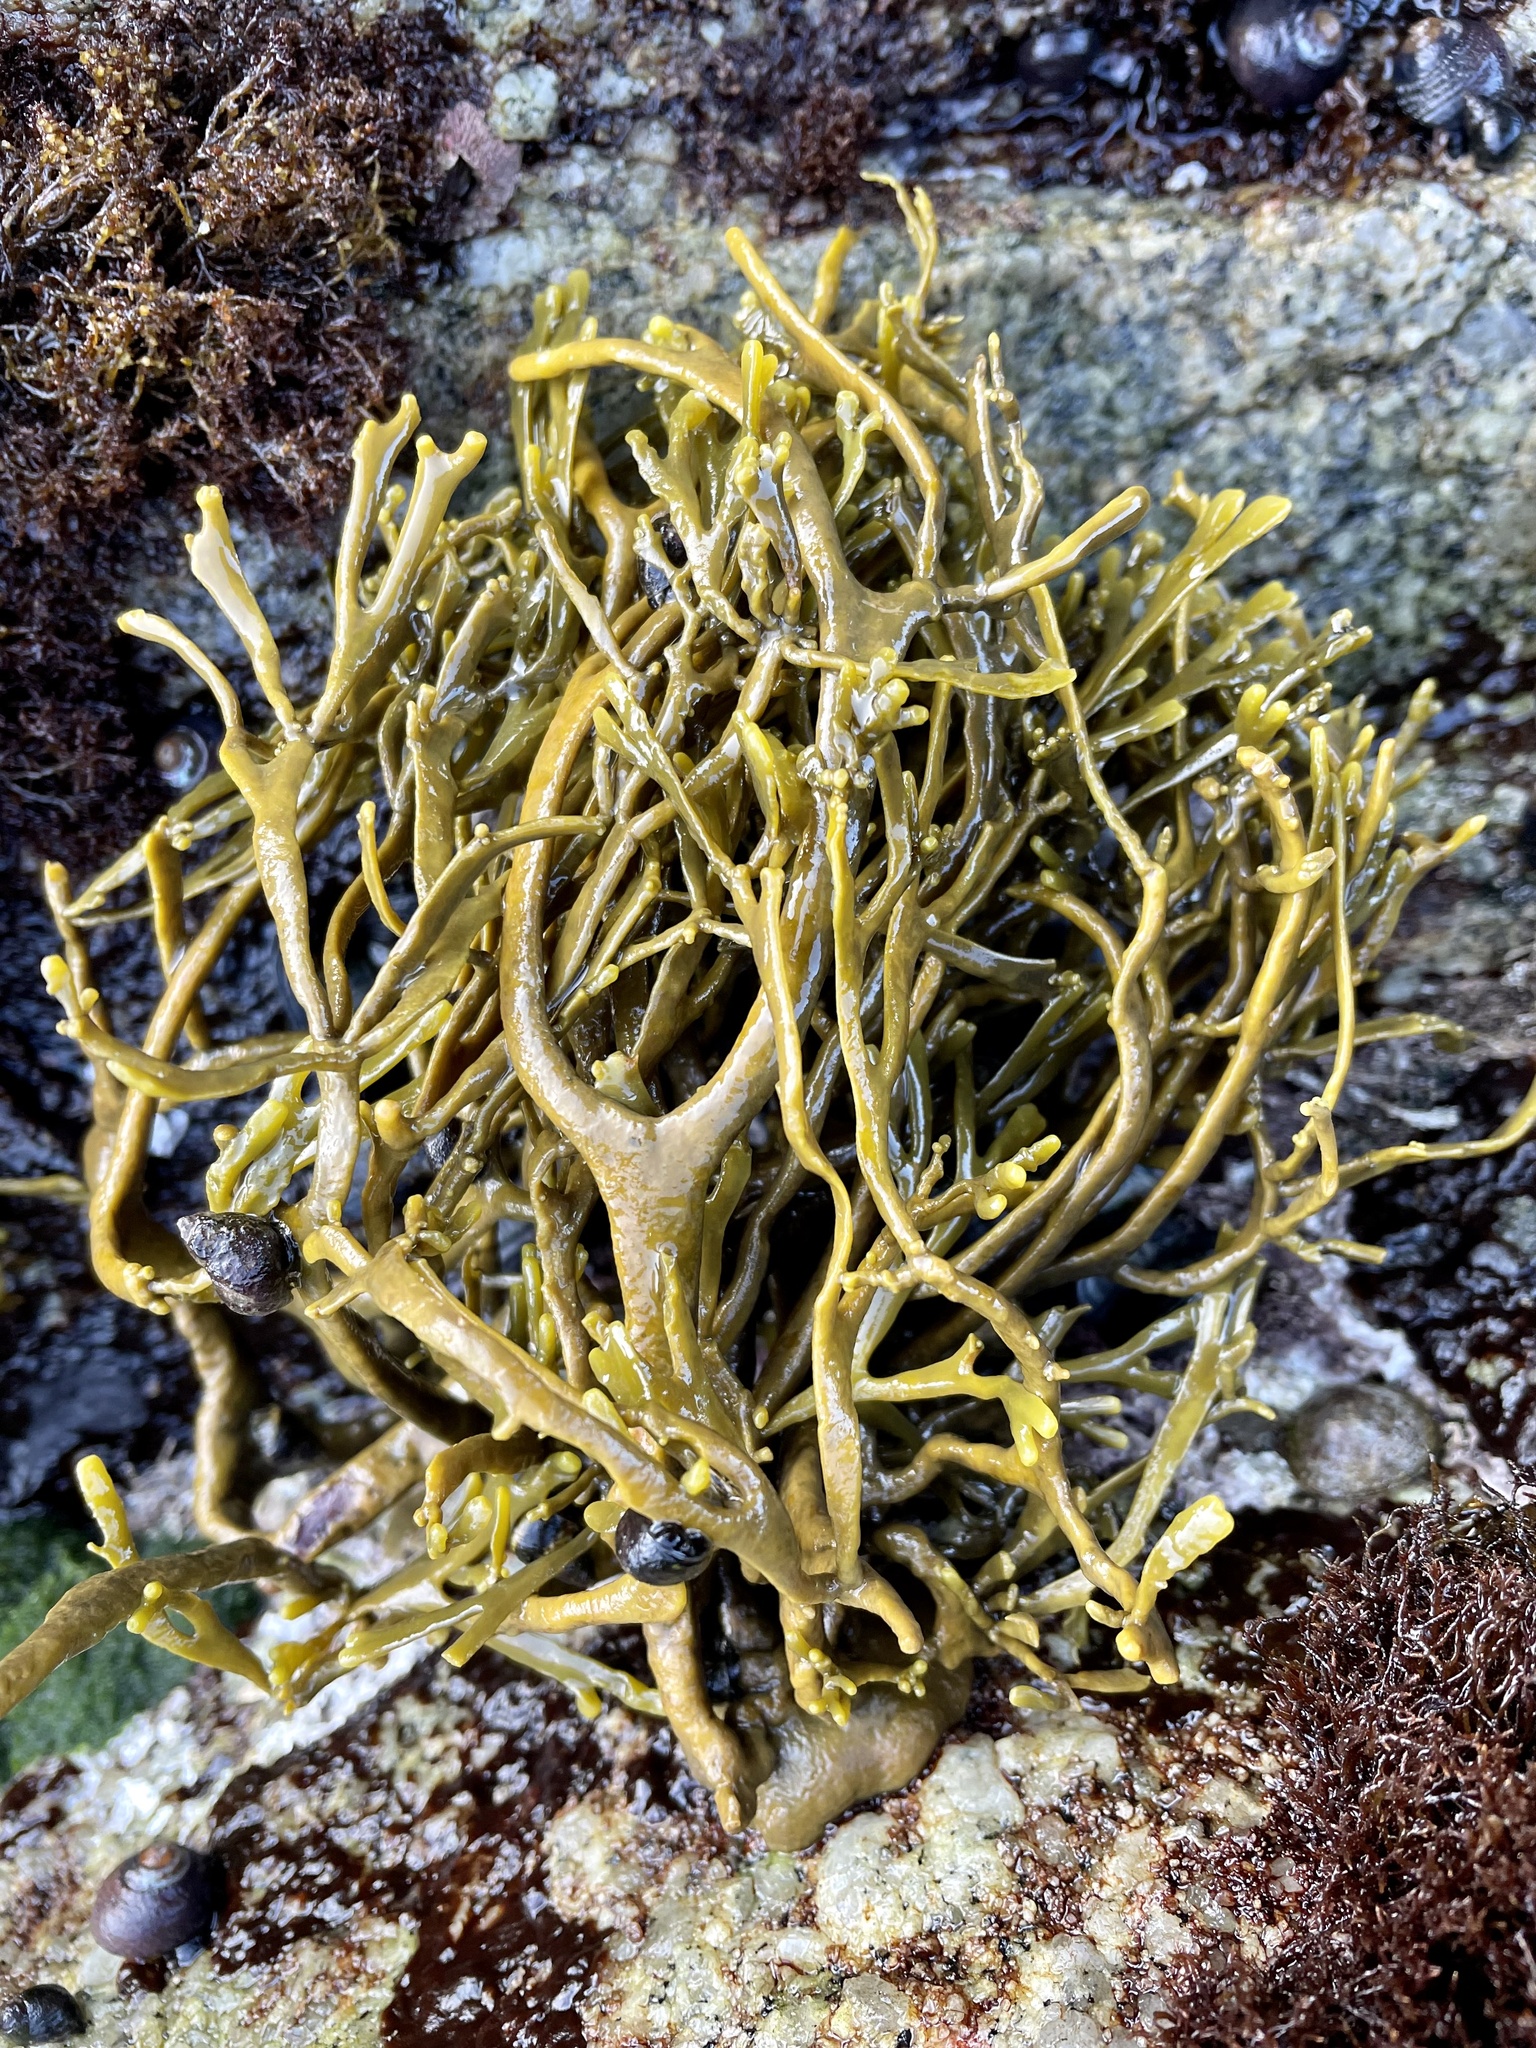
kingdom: Chromista
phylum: Ochrophyta
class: Phaeophyceae
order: Fucales
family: Fucaceae
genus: Silvetia
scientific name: Silvetia
